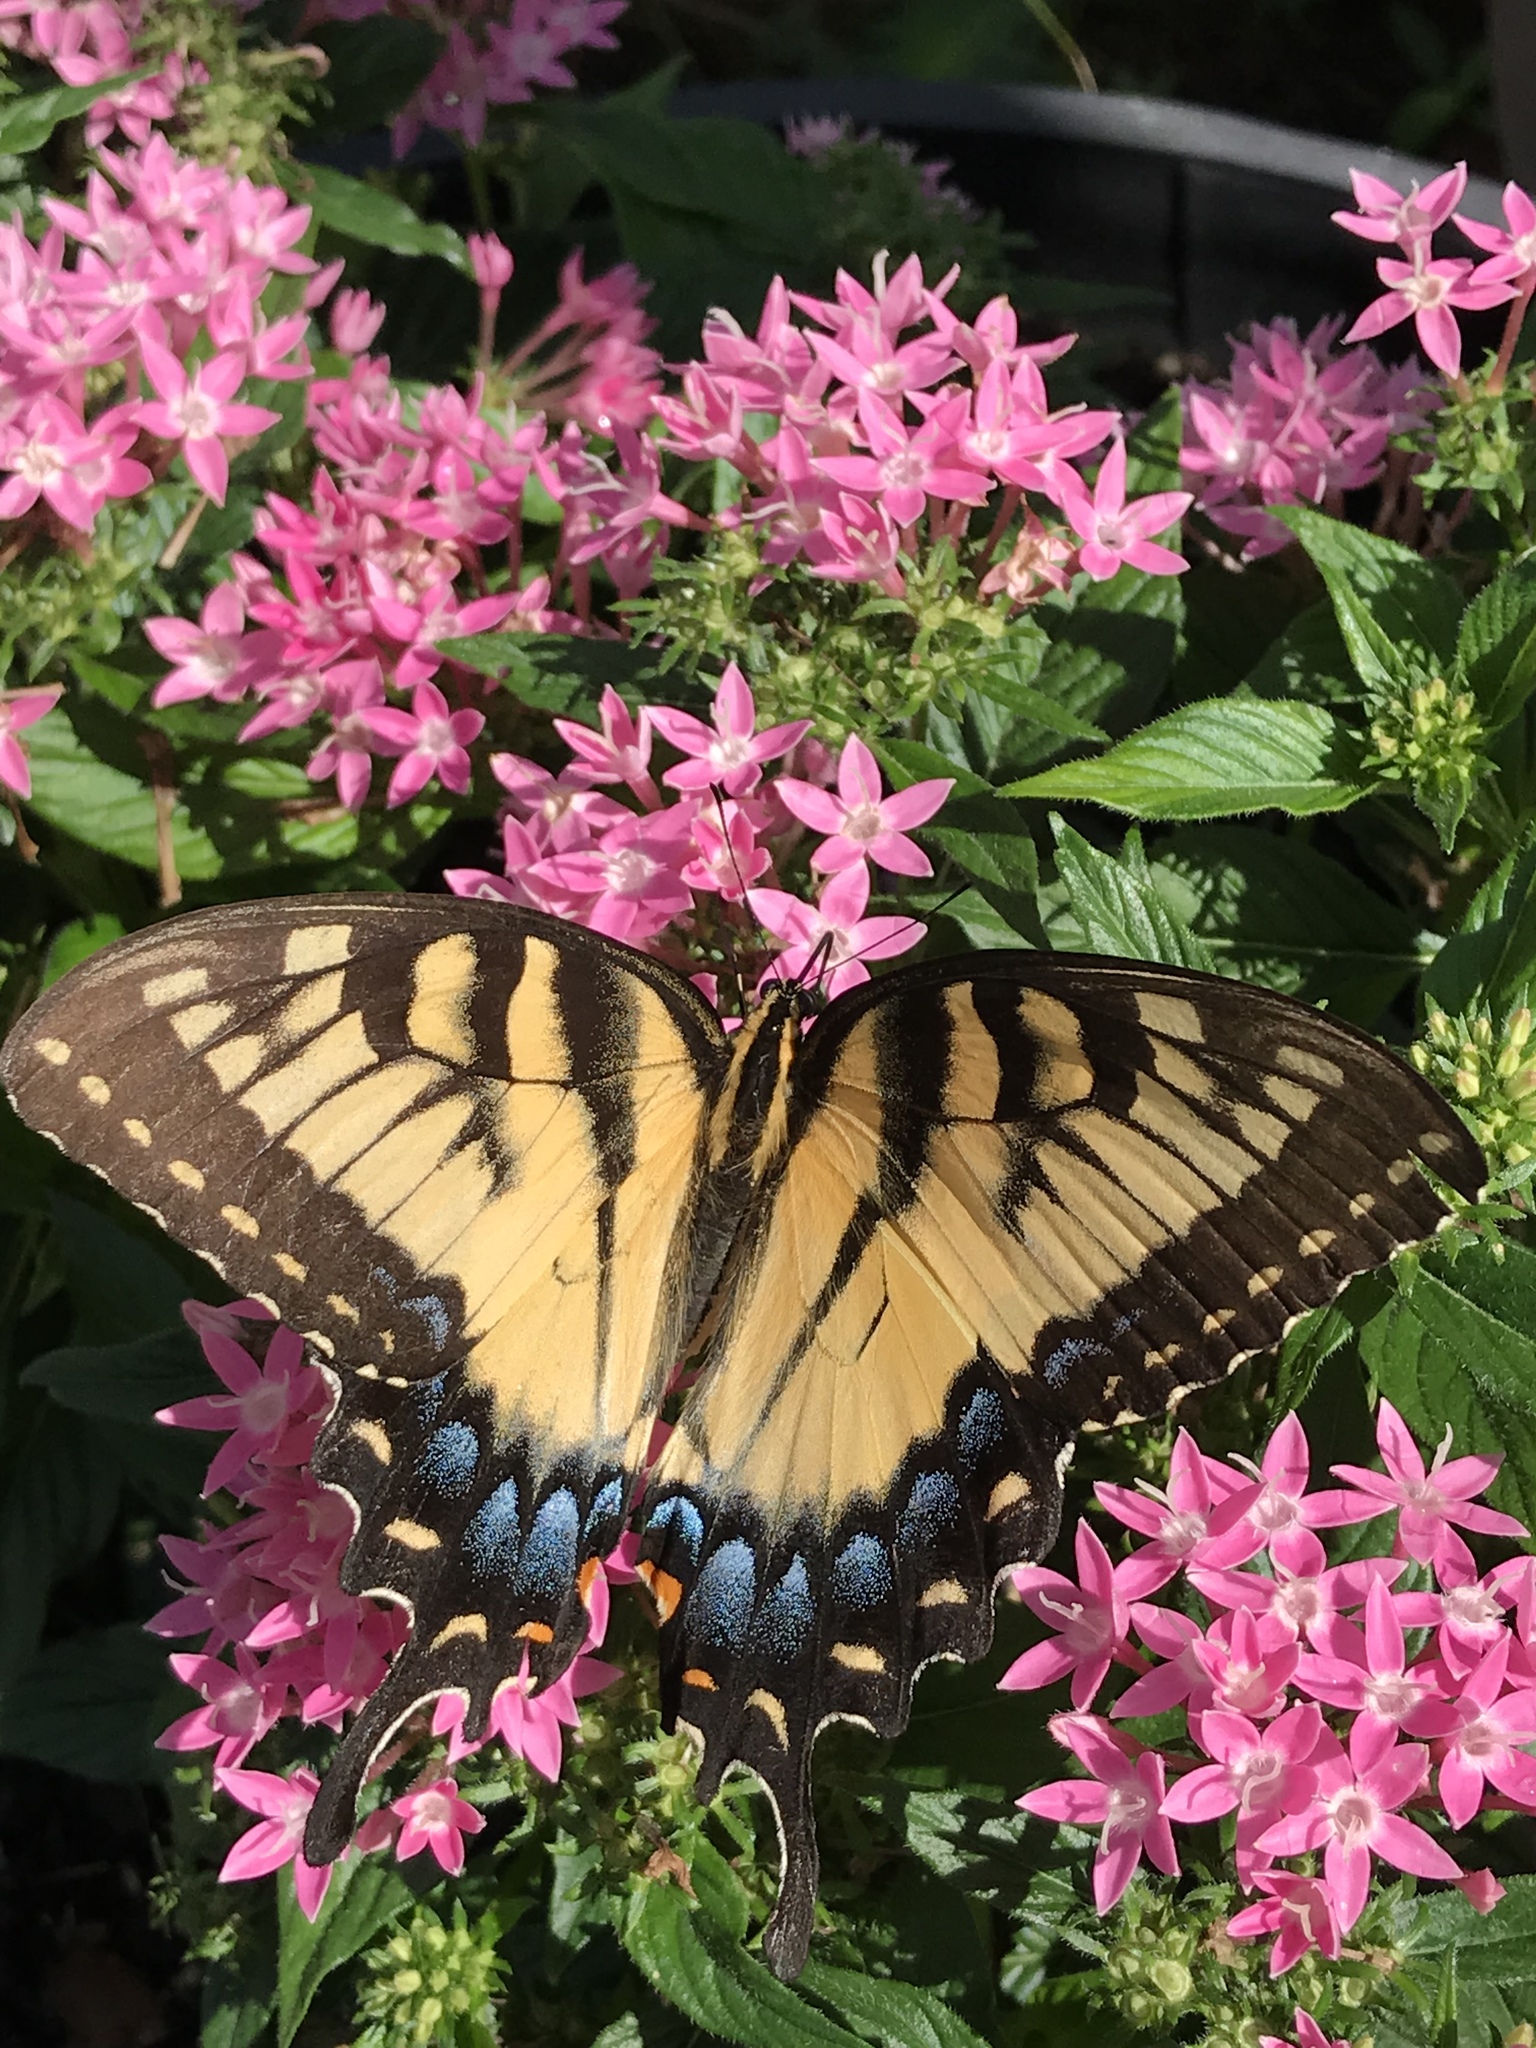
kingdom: Animalia
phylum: Arthropoda
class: Insecta
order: Lepidoptera
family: Papilionidae
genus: Papilio
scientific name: Papilio glaucus
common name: Tiger swallowtail
